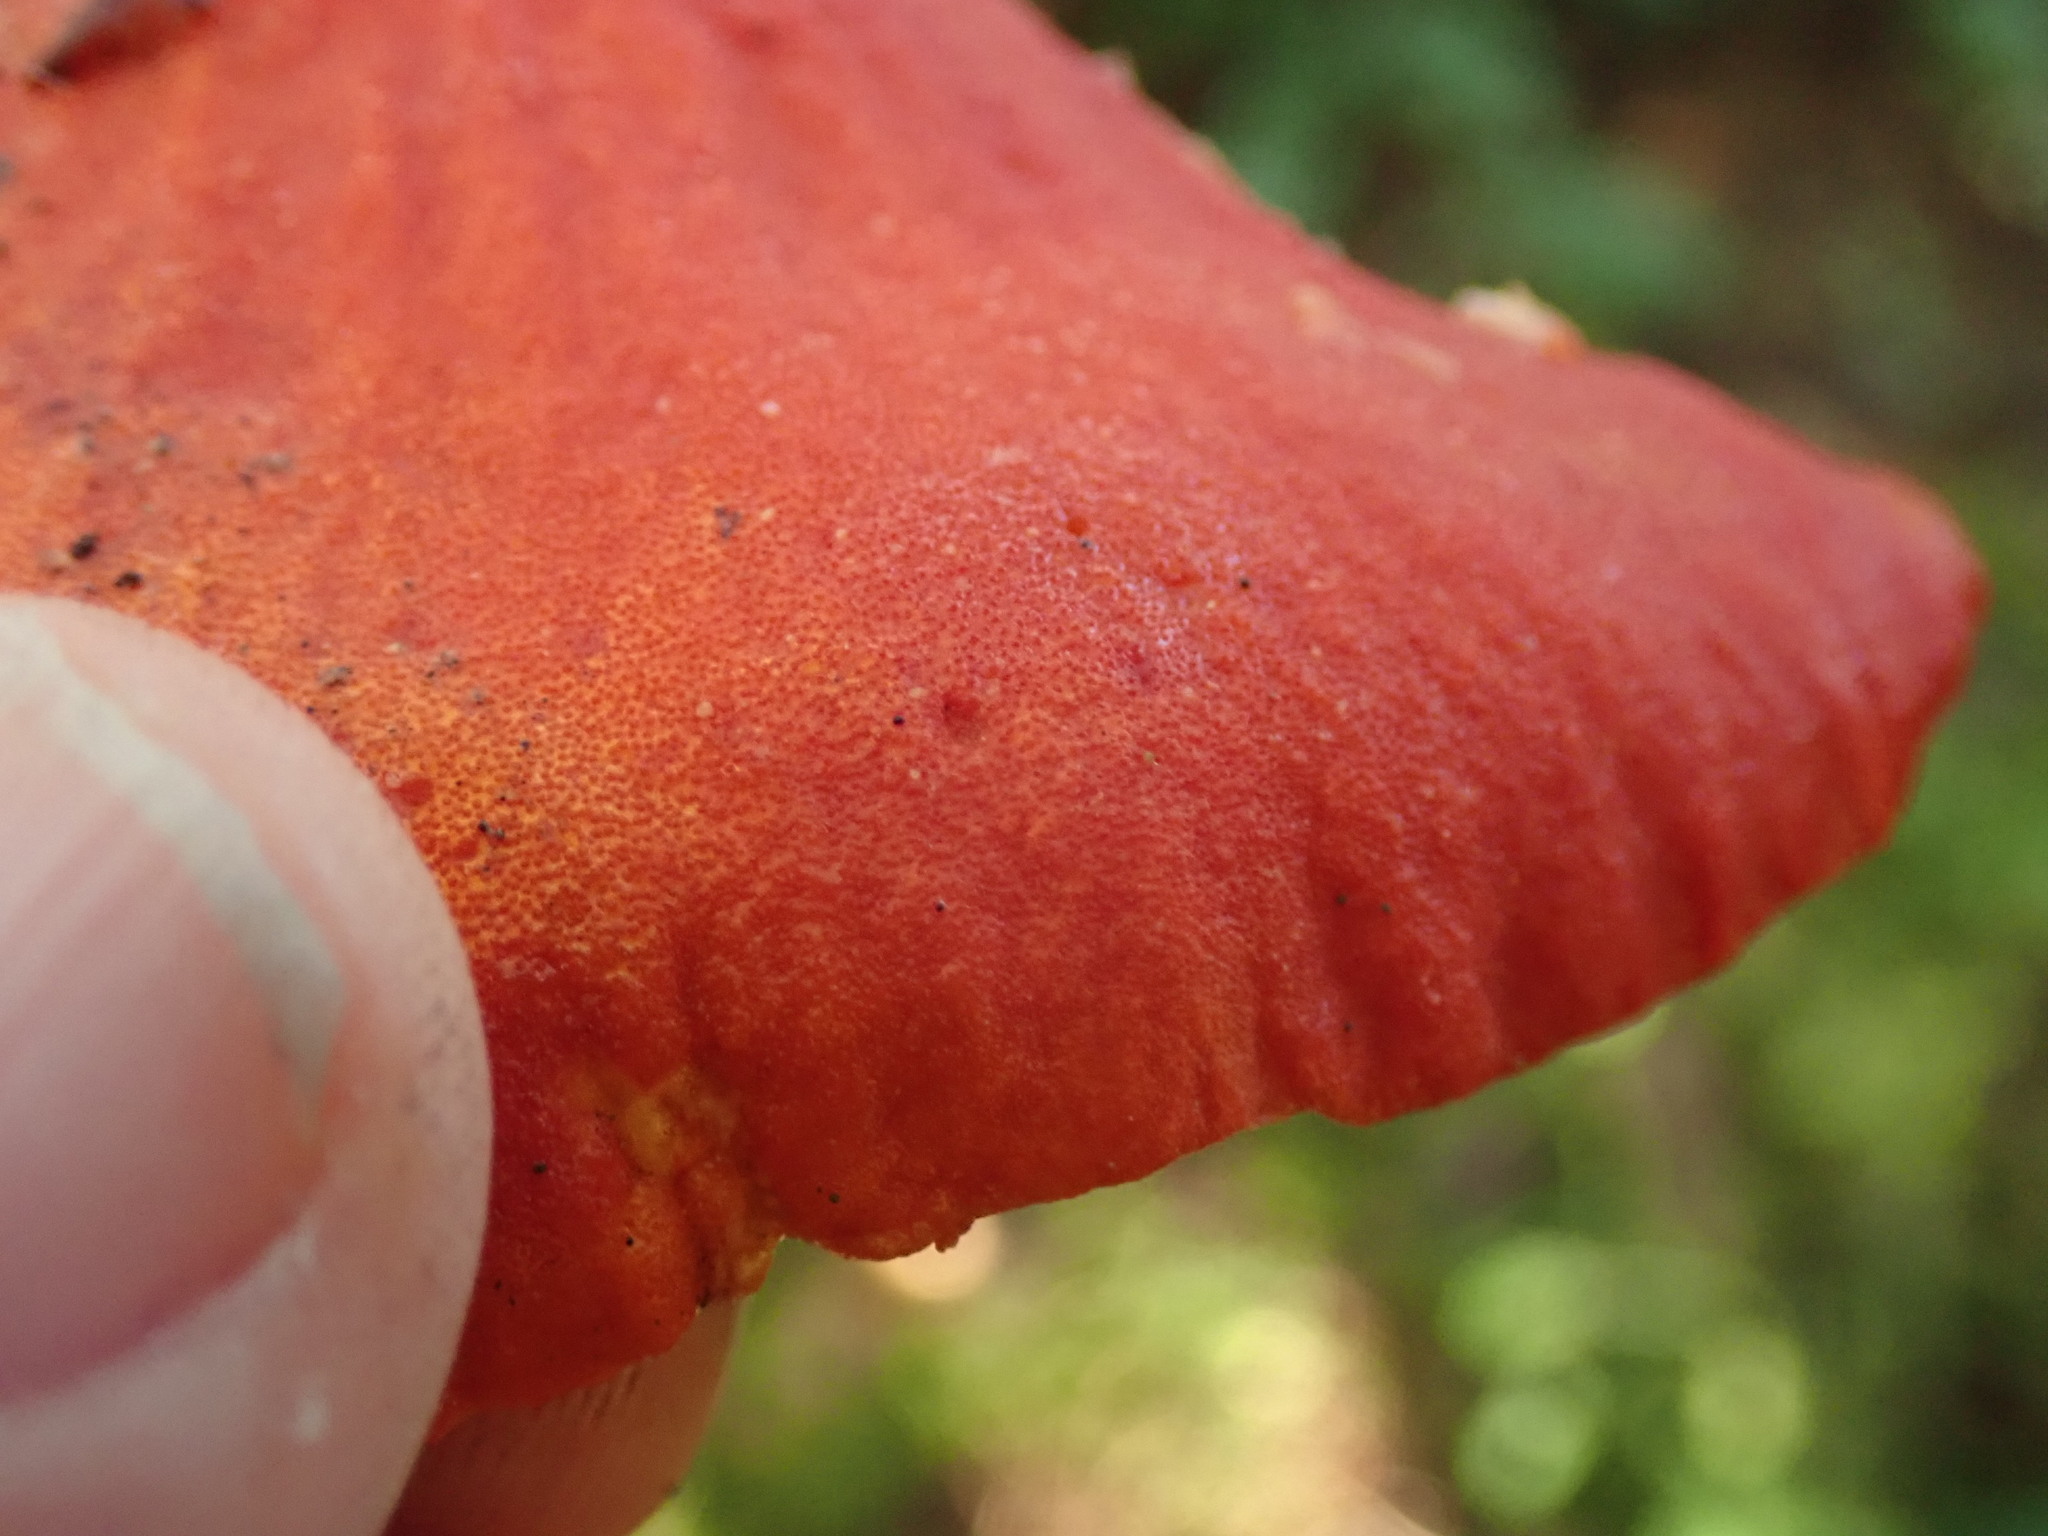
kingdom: Fungi
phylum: Ascomycota
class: Sordariomycetes
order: Hypocreales
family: Hypocreaceae
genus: Hypomyces
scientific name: Hypomyces lactifluorum
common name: Lobster mushroom
